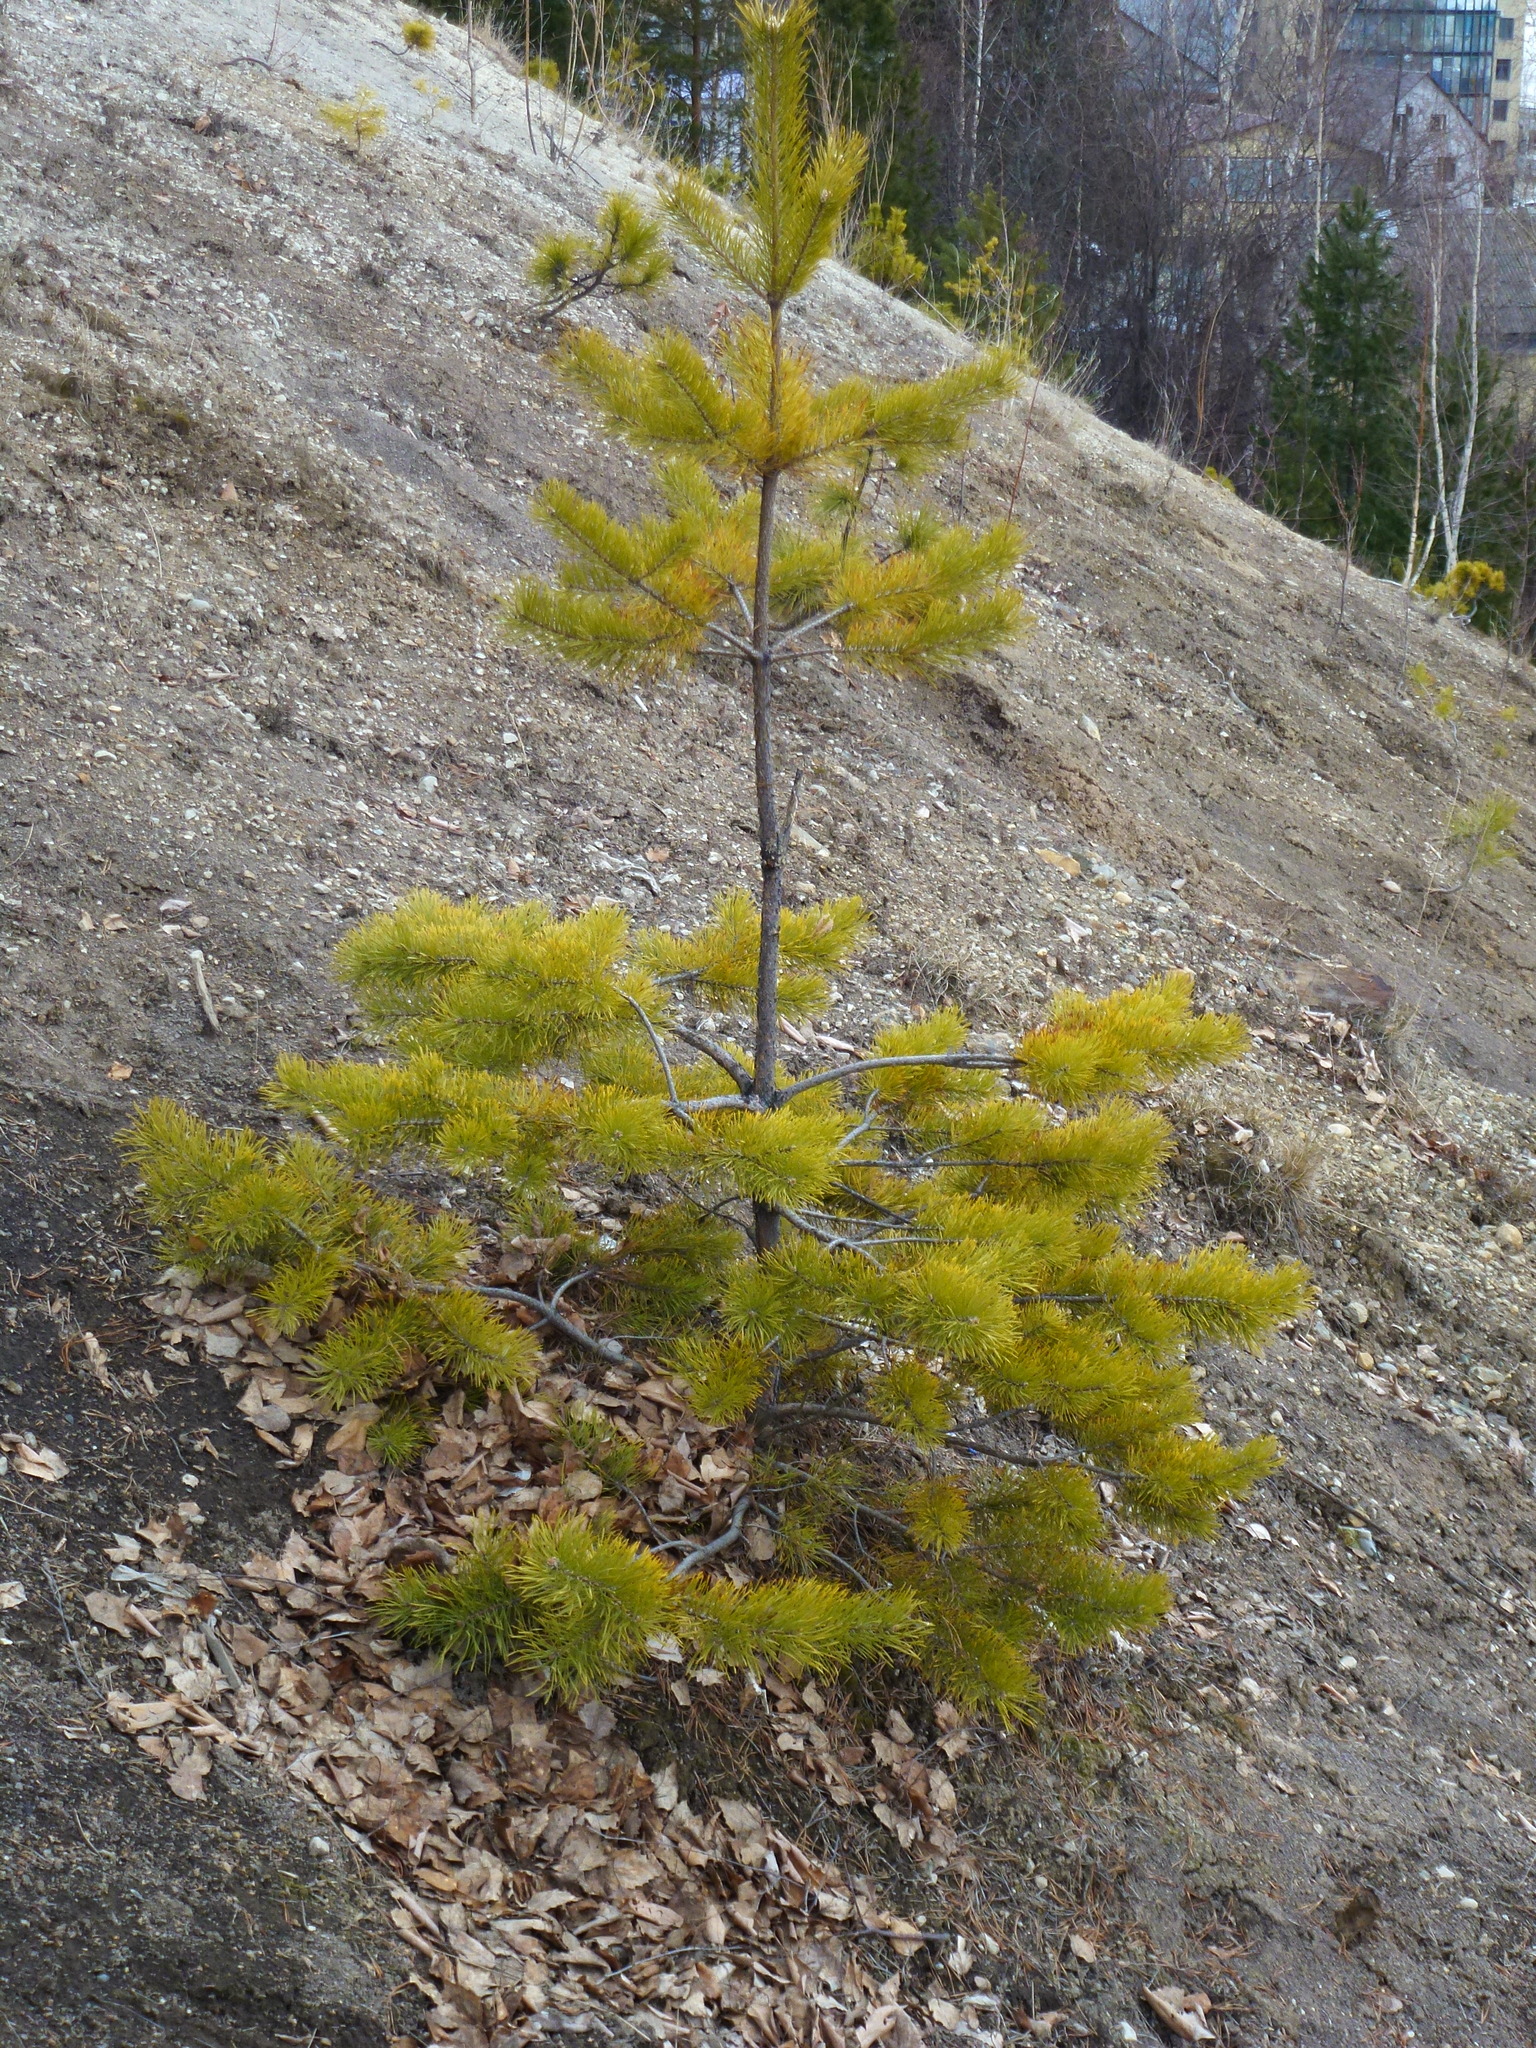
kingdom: Plantae
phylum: Tracheophyta
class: Pinopsida
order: Pinales
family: Pinaceae
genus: Pinus
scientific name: Pinus sylvestris
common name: Scots pine
